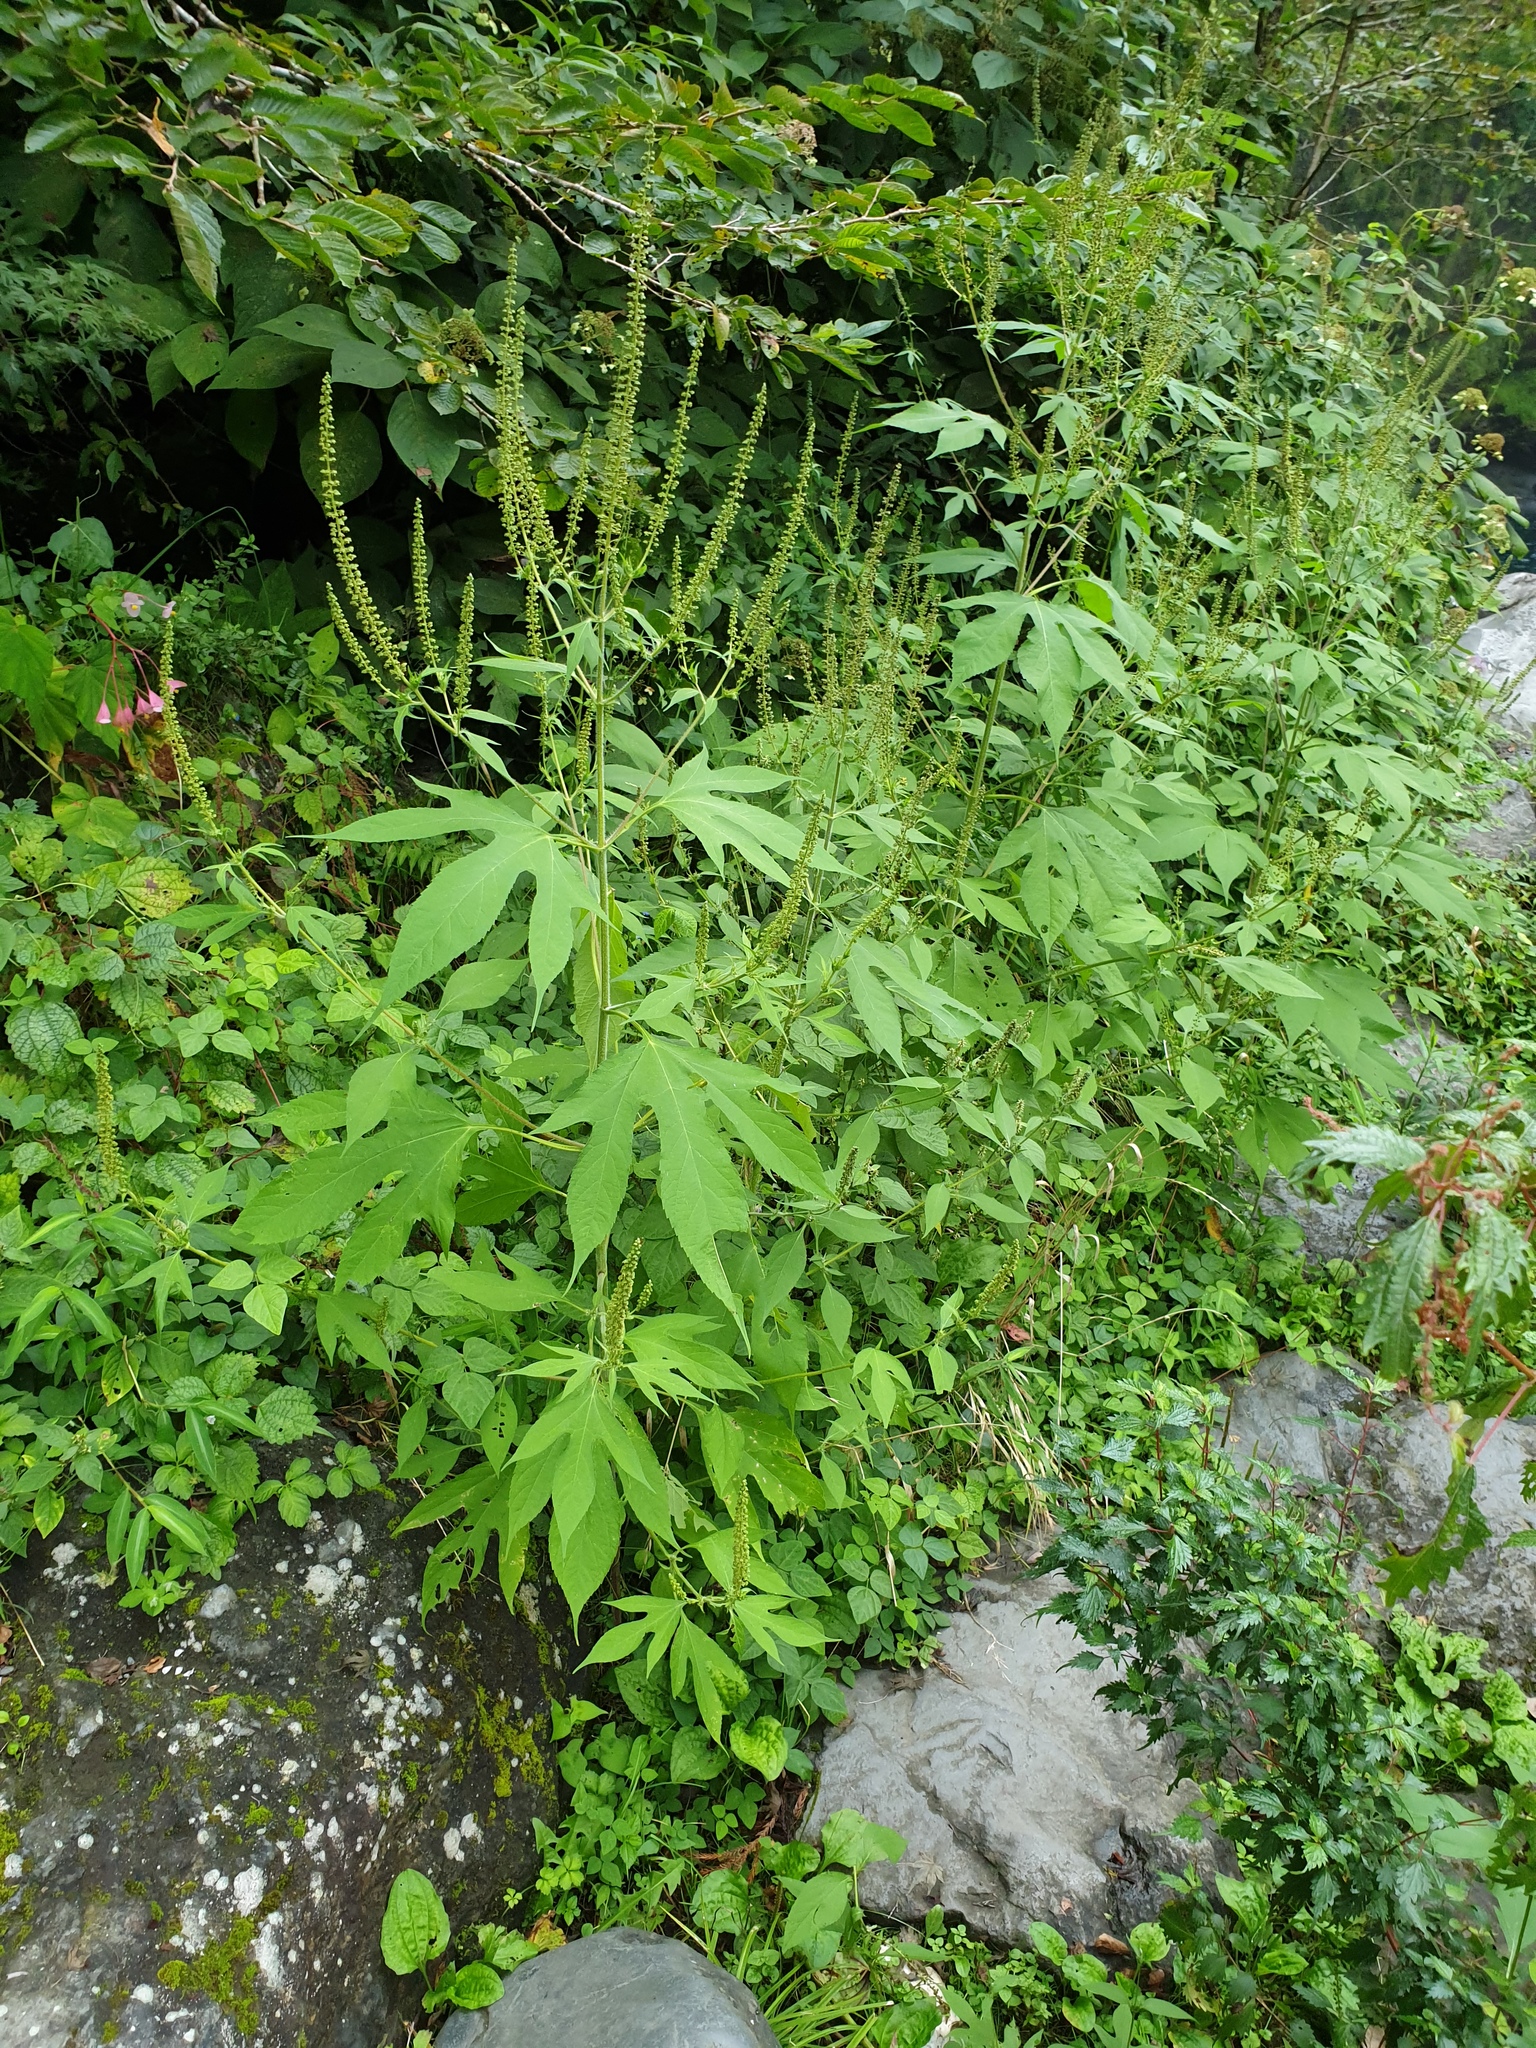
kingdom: Plantae
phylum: Tracheophyta
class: Magnoliopsida
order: Asterales
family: Asteraceae
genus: Ambrosia
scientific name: Ambrosia trifida
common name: Giant ragweed
